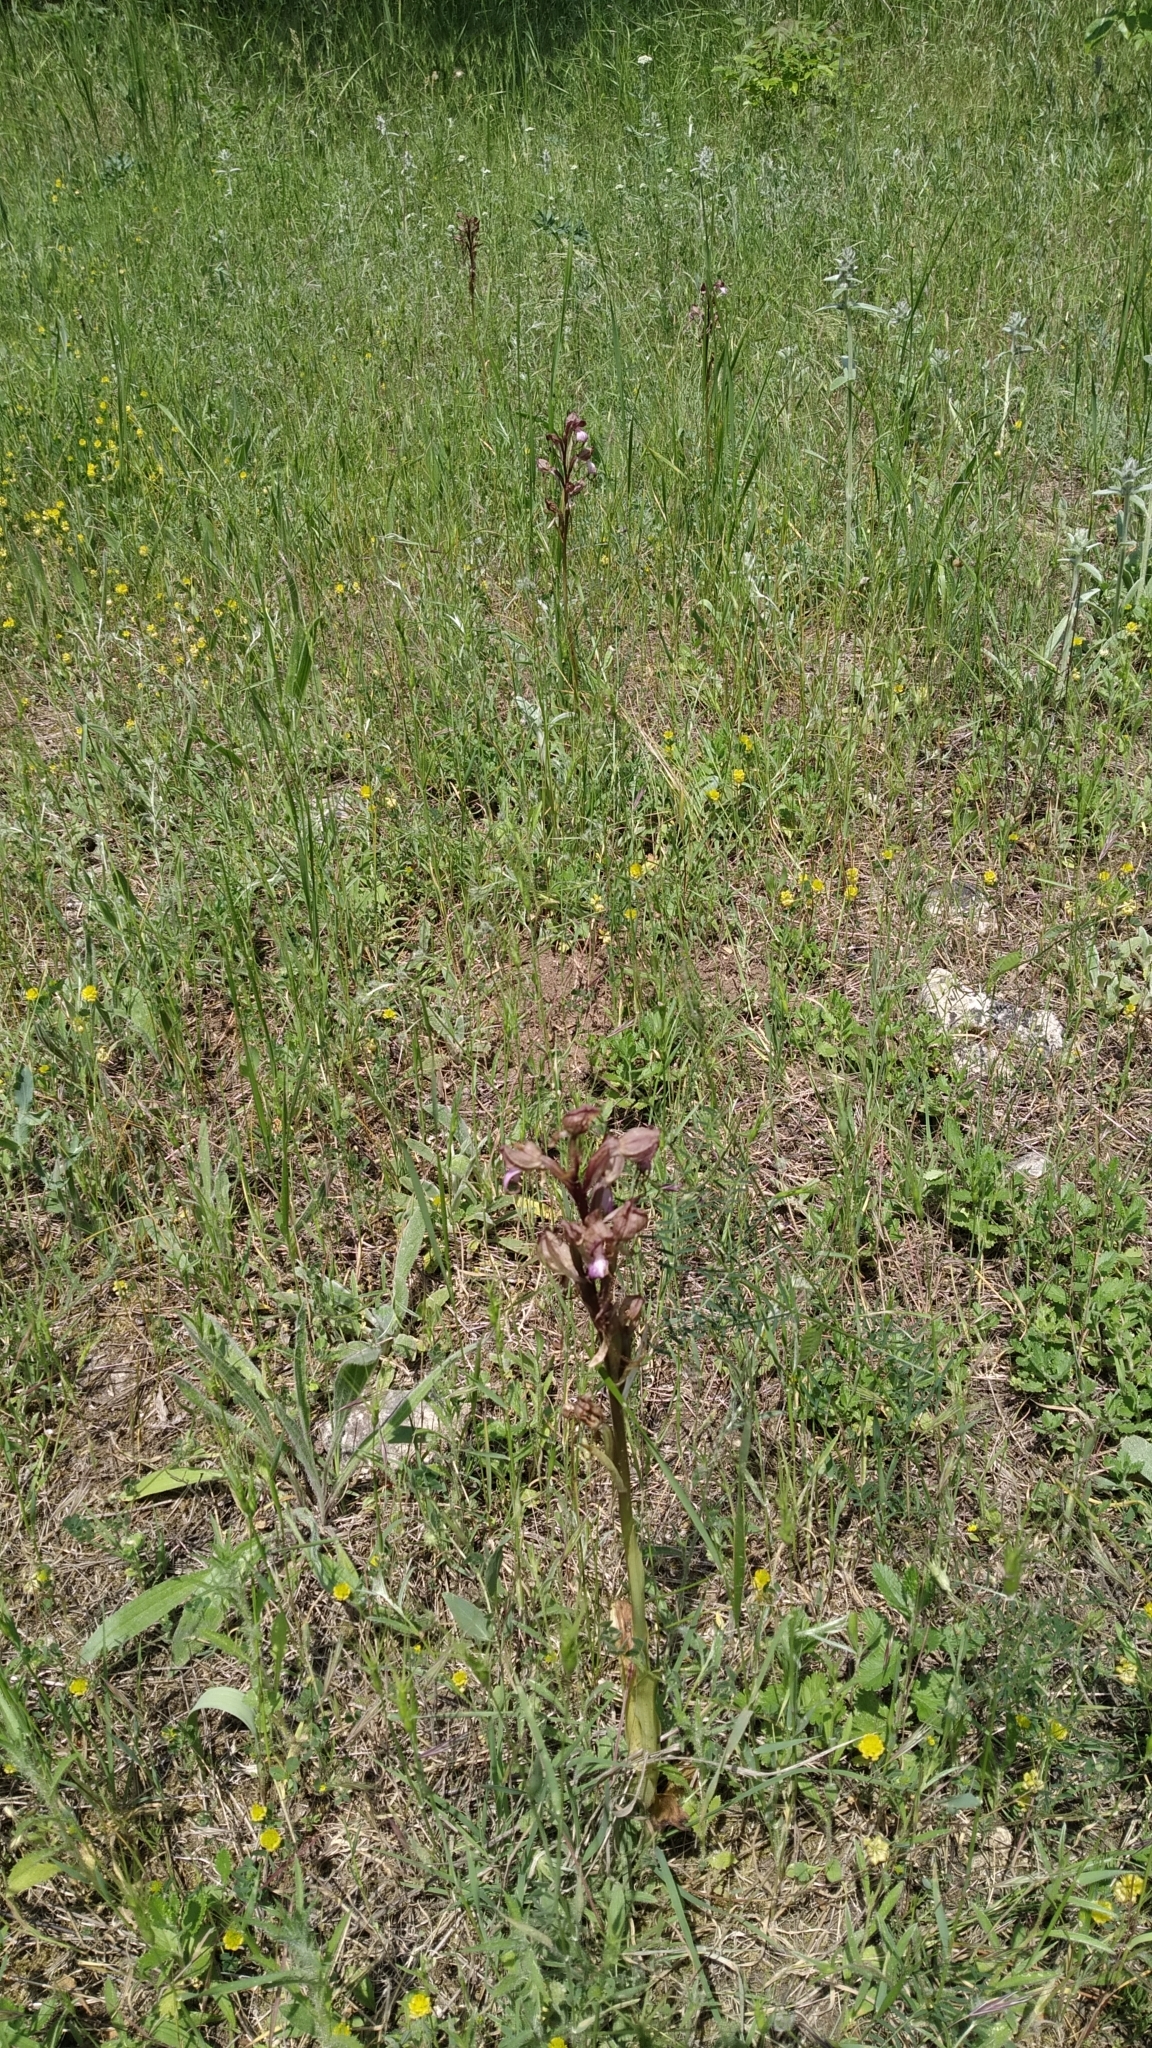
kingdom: Plantae
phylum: Tracheophyta
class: Liliopsida
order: Asparagales
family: Orchidaceae
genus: Himantoglossum
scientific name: Himantoglossum comperianum
